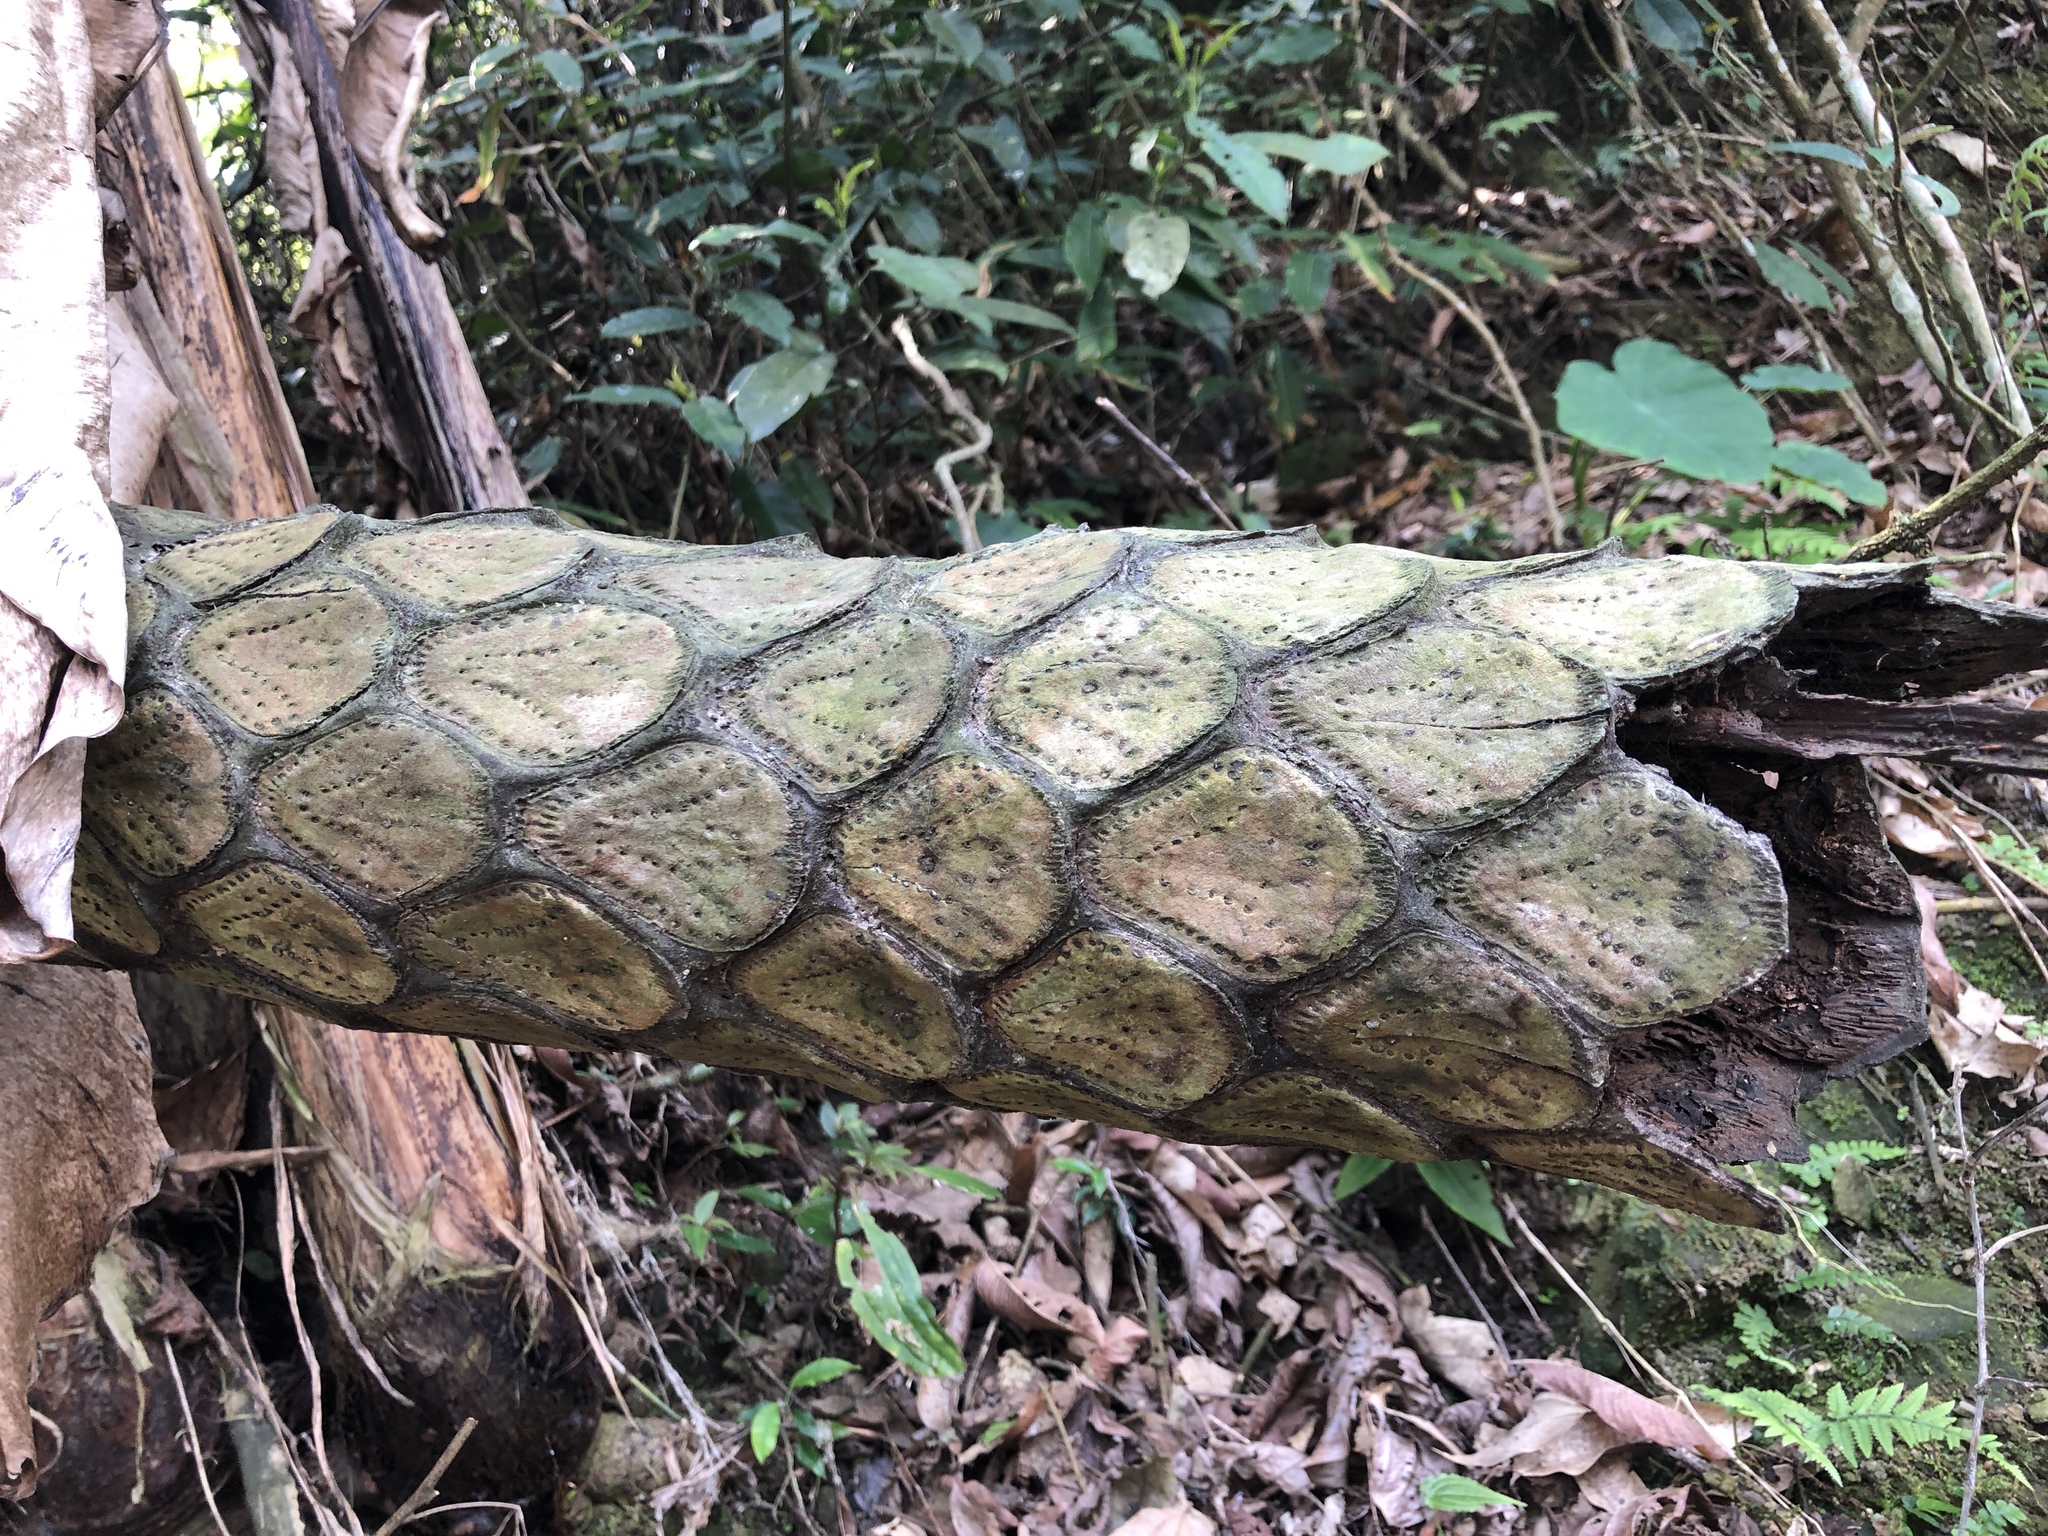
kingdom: Plantae
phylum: Tracheophyta
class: Polypodiopsida
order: Cyatheales
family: Cyatheaceae
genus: Alsophila
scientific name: Alsophila lepifera
